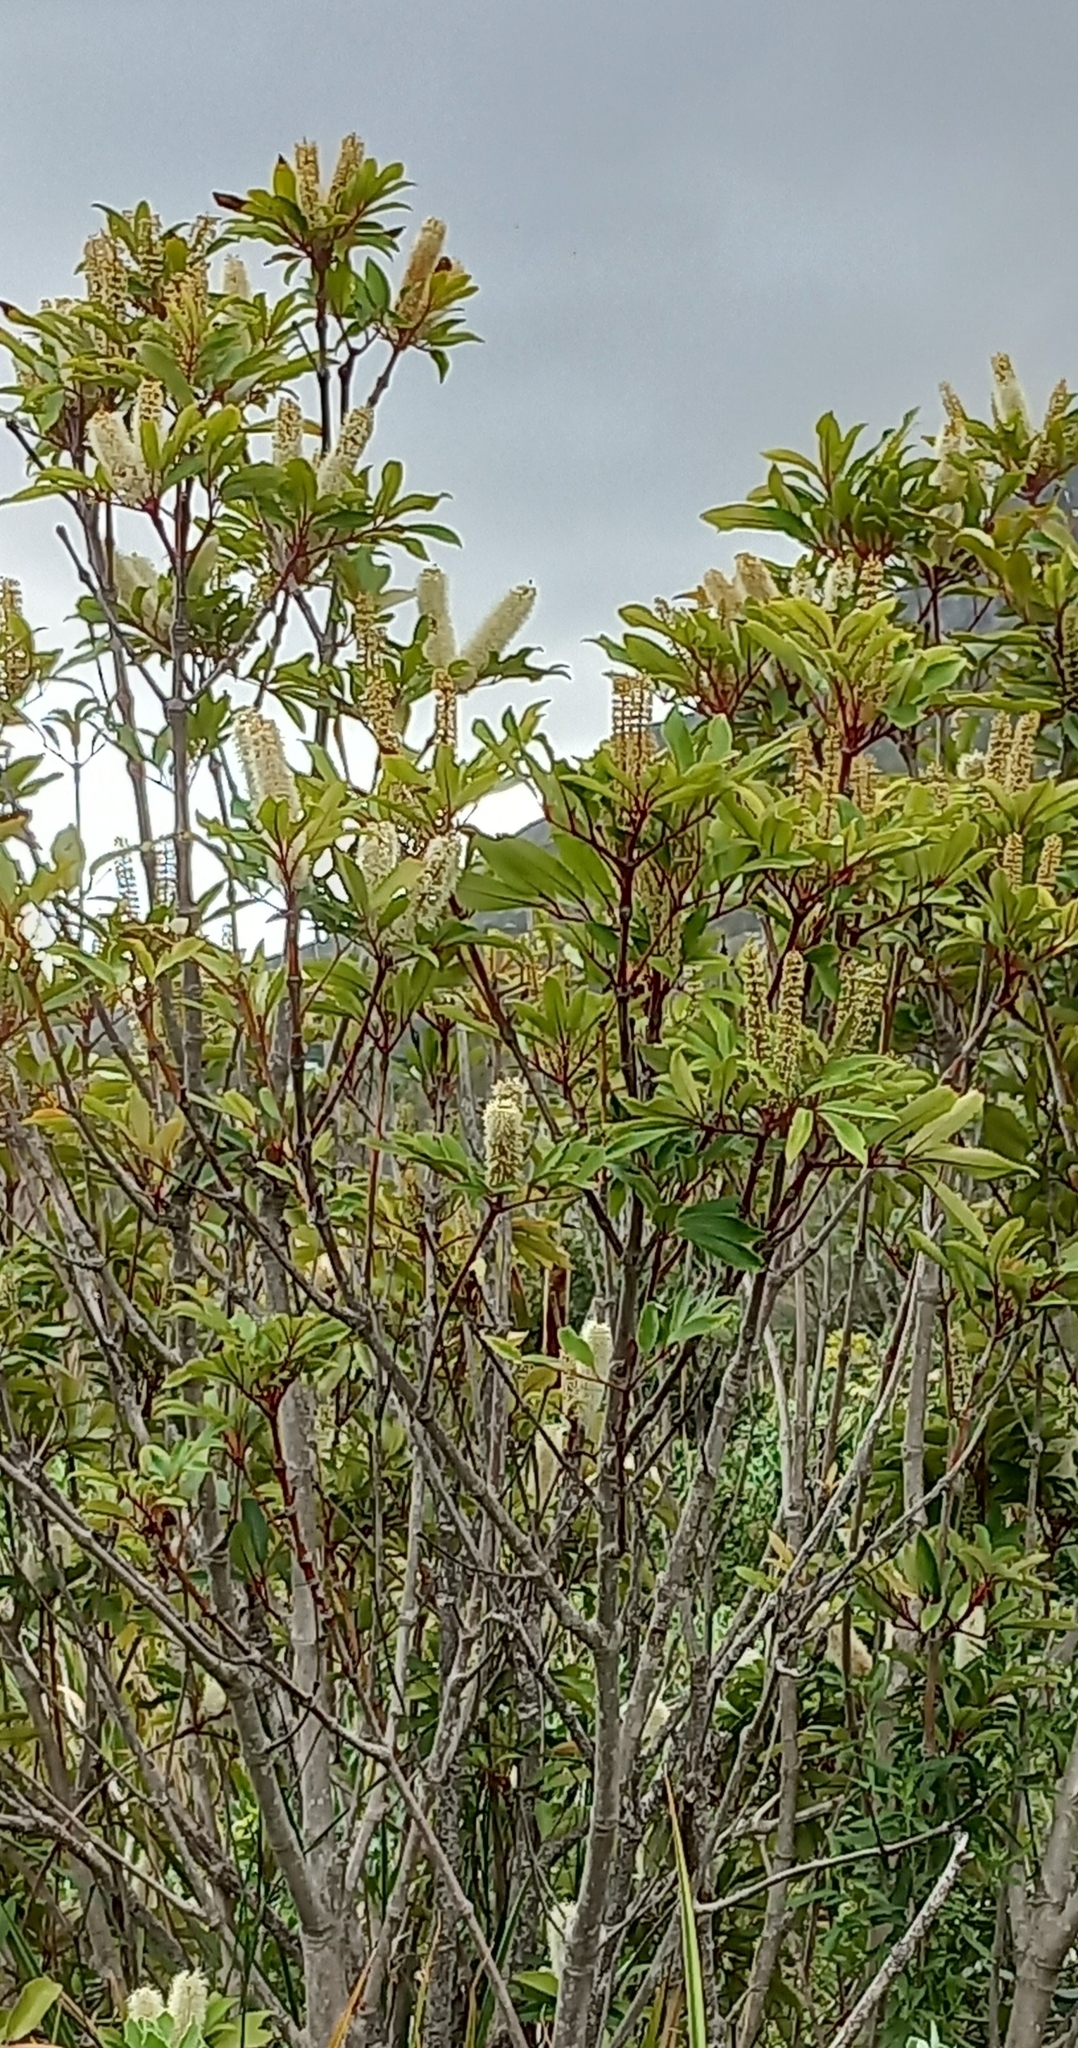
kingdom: Plantae
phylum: Tracheophyta
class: Magnoliopsida
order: Oxalidales
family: Cunoniaceae
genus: Cunonia
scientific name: Cunonia capensis
